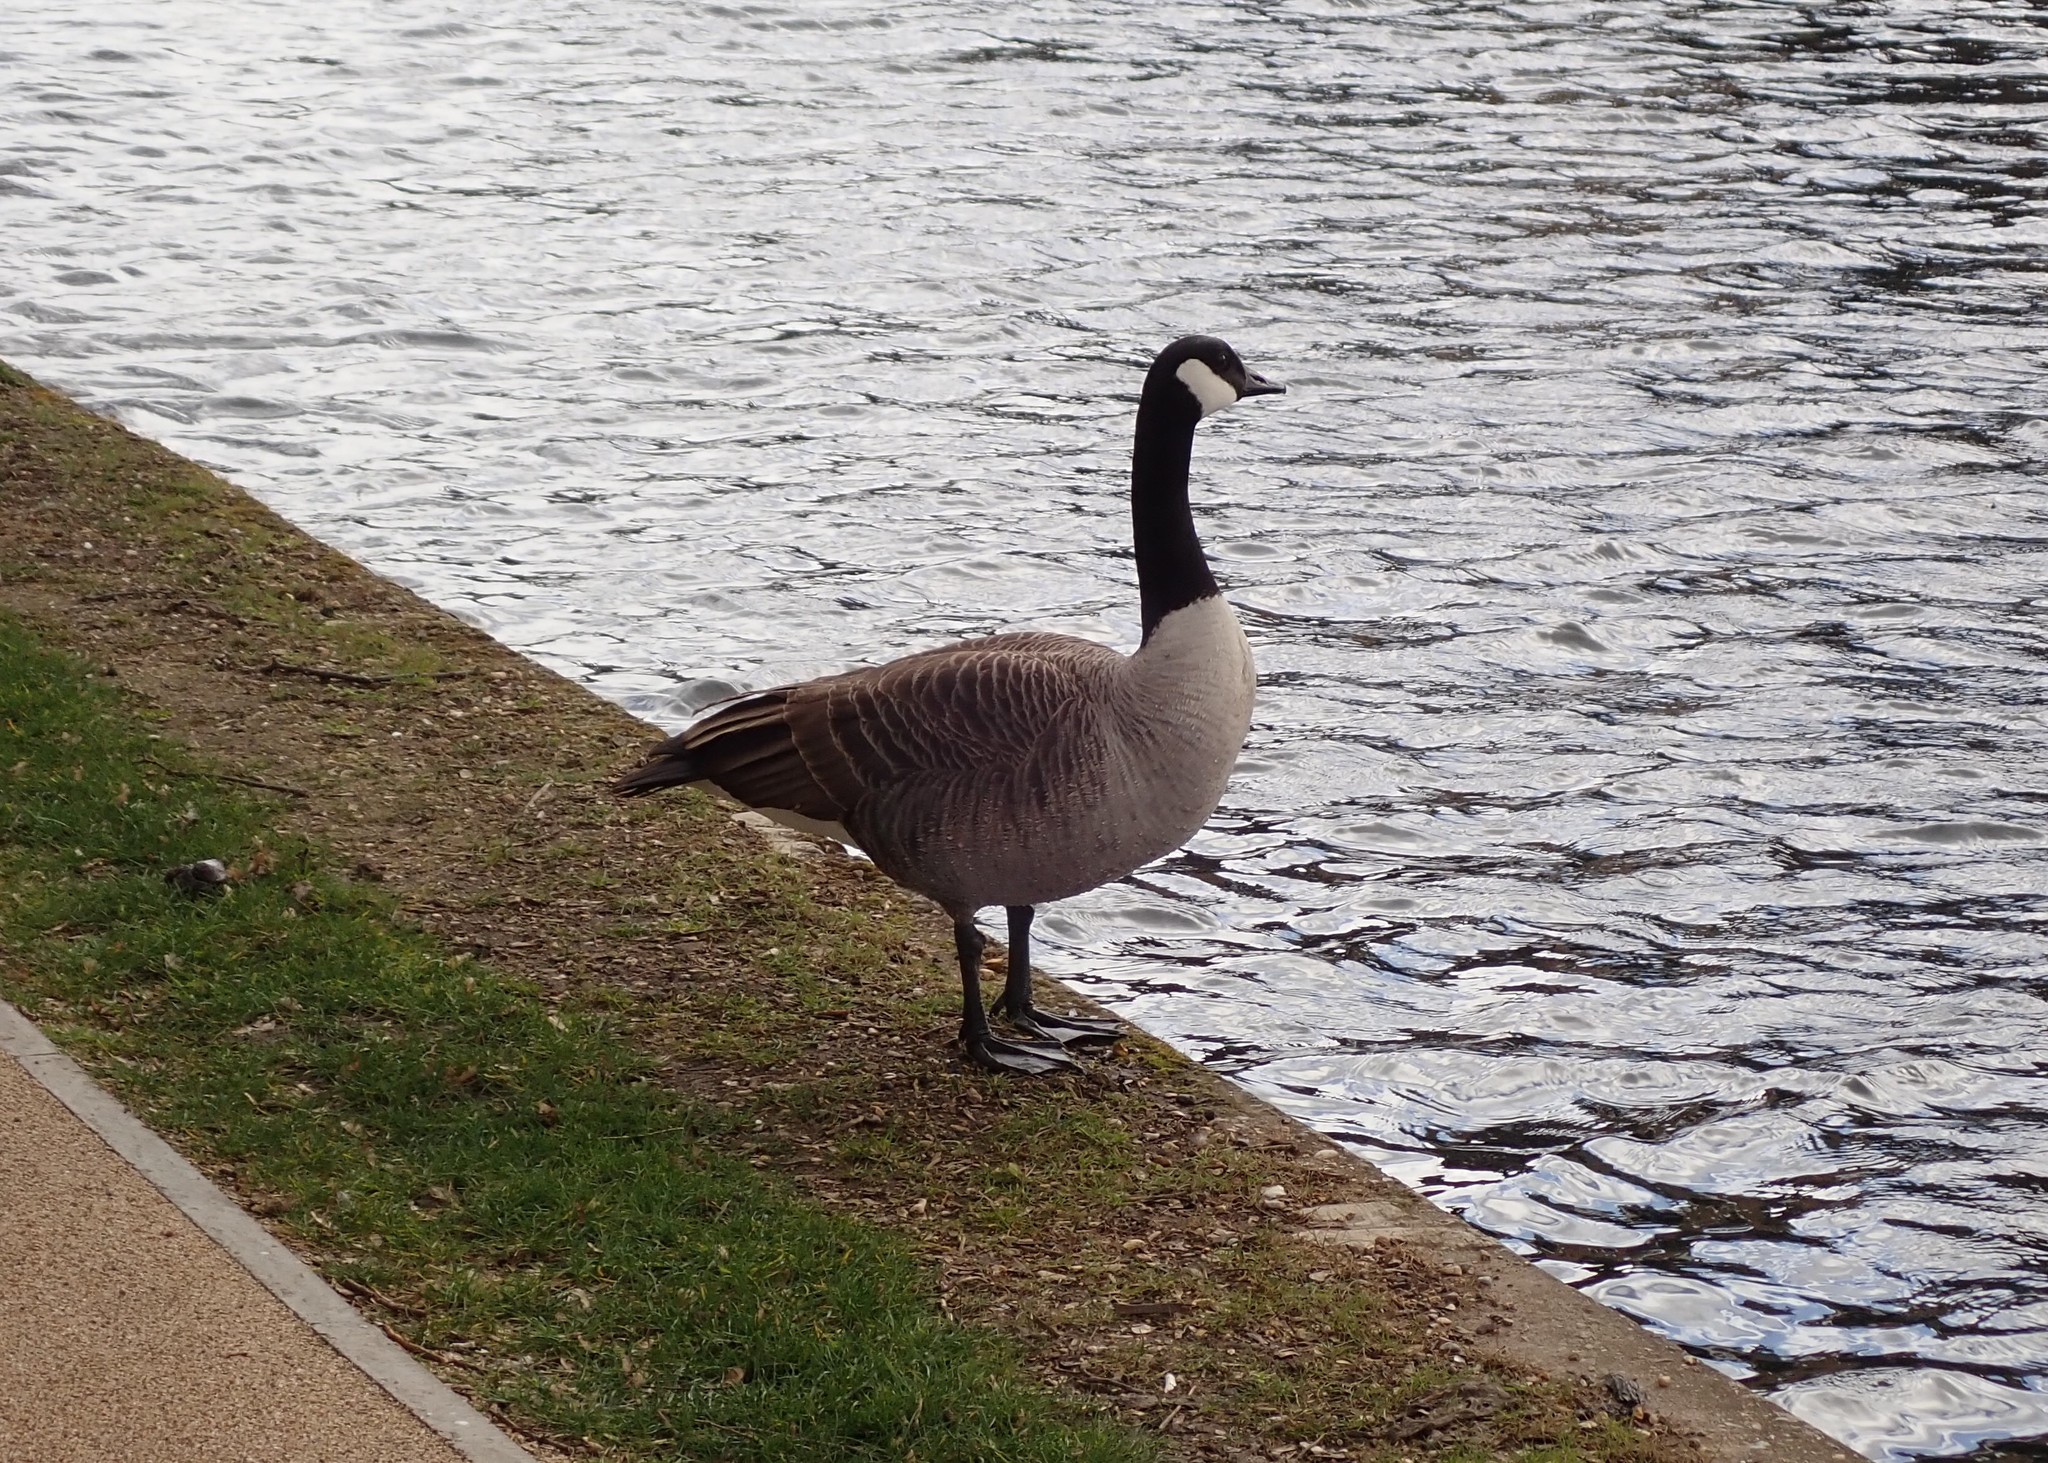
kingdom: Animalia
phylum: Chordata
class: Aves
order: Anseriformes
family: Anatidae
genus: Branta
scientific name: Branta canadensis
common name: Canada goose
